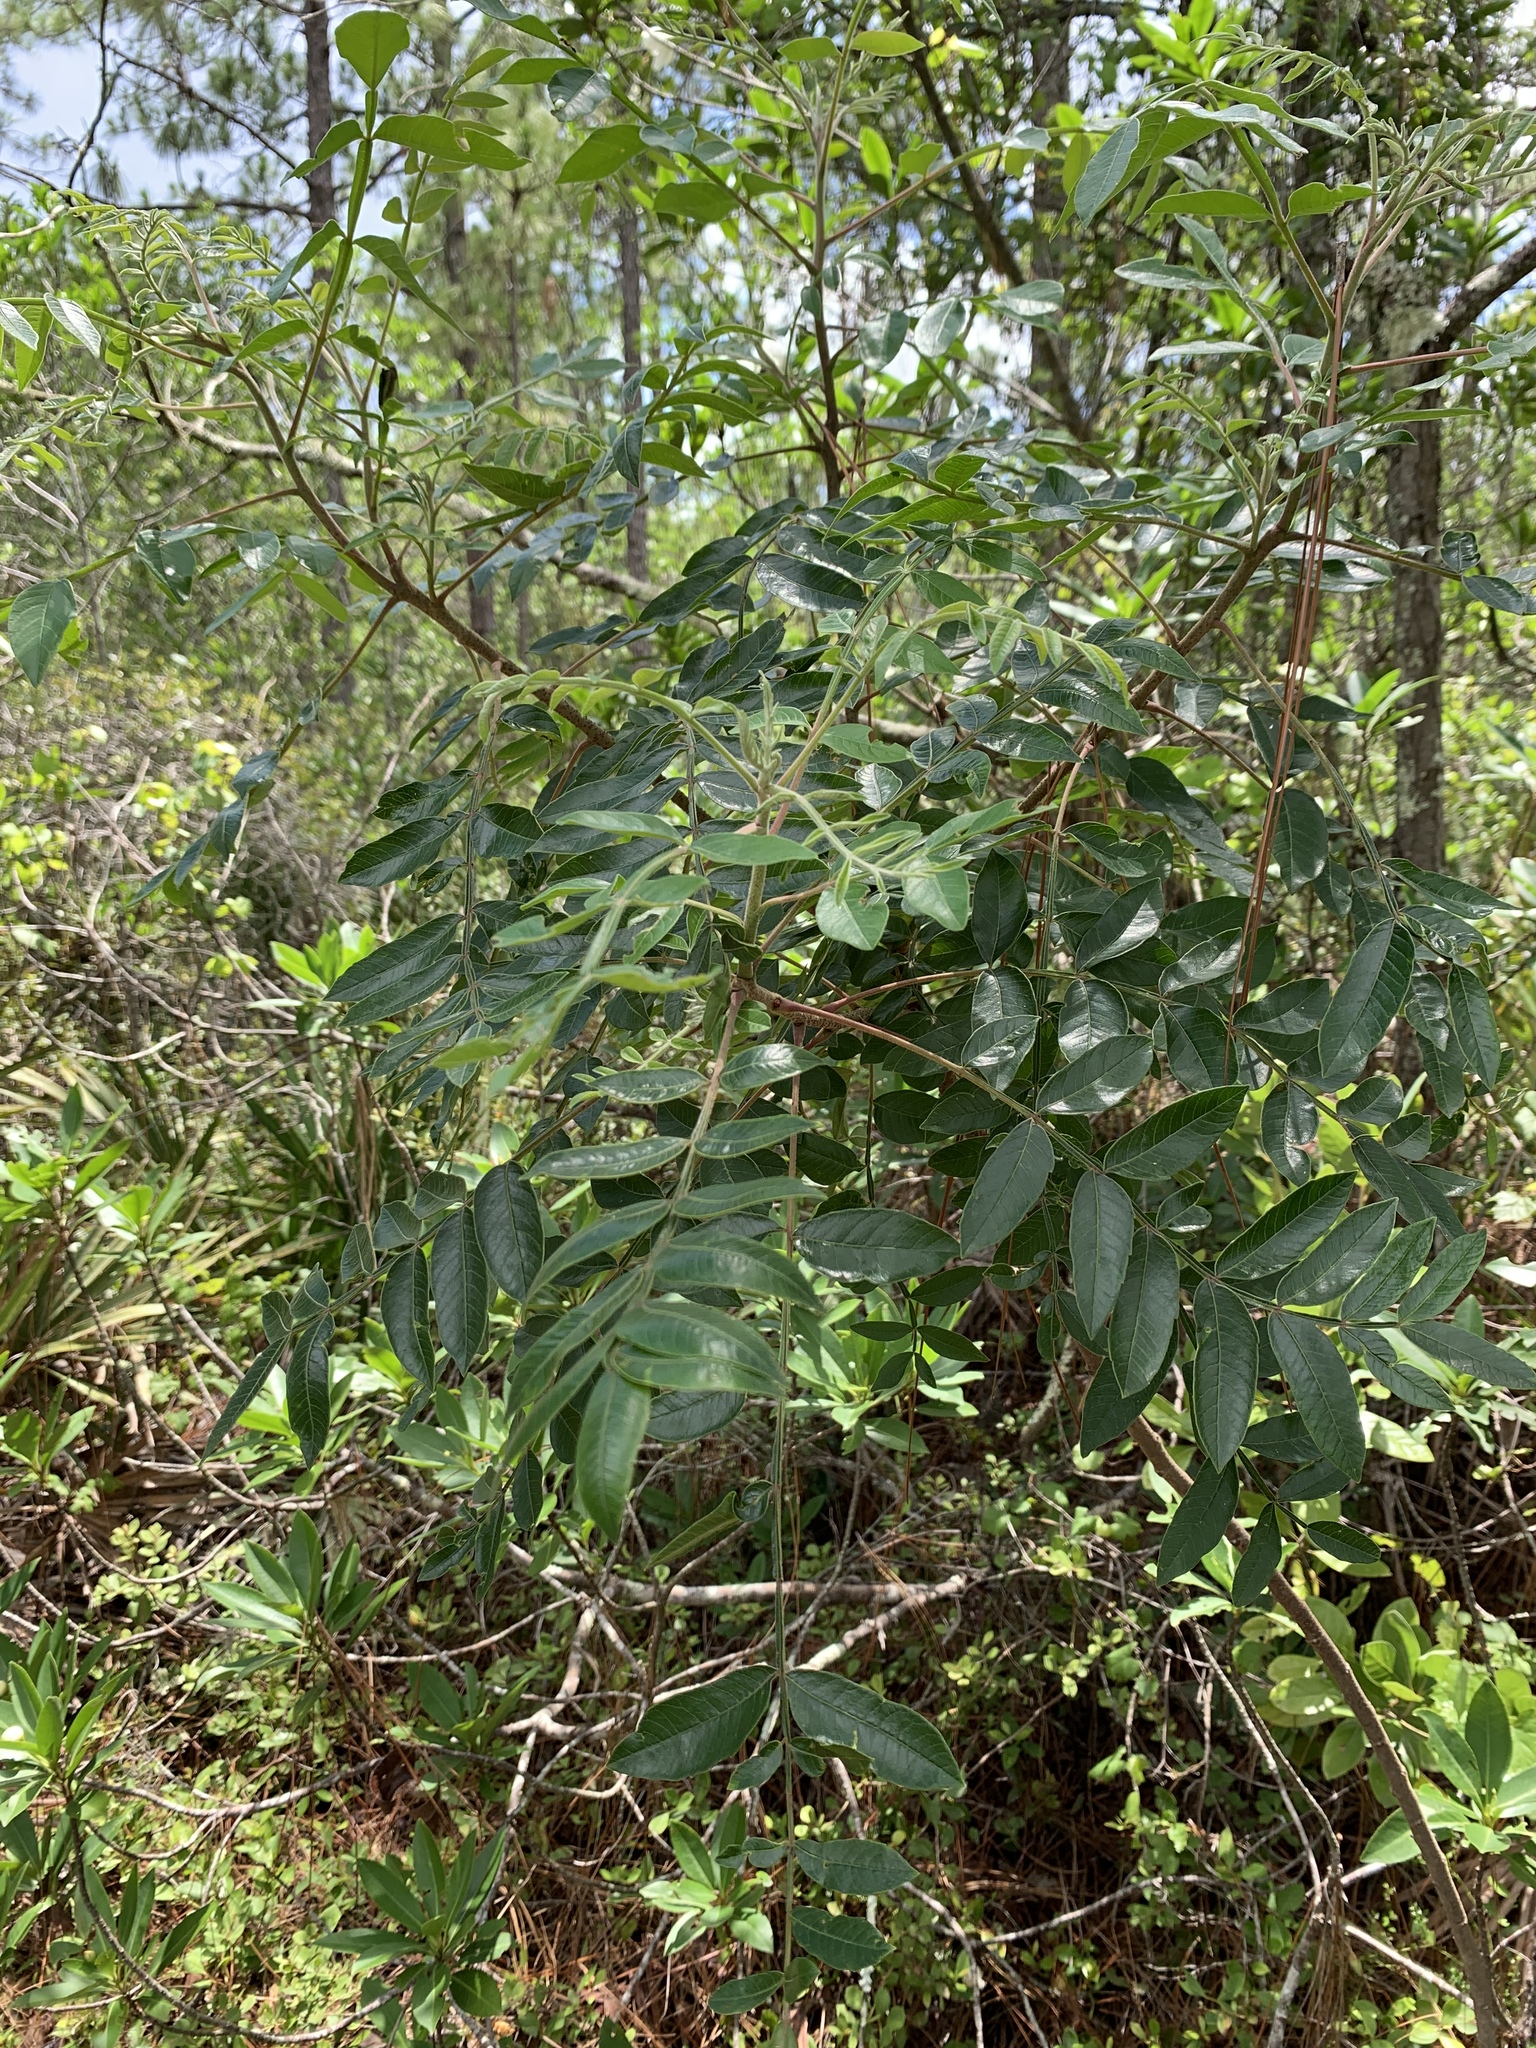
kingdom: Plantae
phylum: Tracheophyta
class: Magnoliopsida
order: Sapindales
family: Anacardiaceae
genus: Rhus
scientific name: Rhus copallina
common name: Shining sumac
